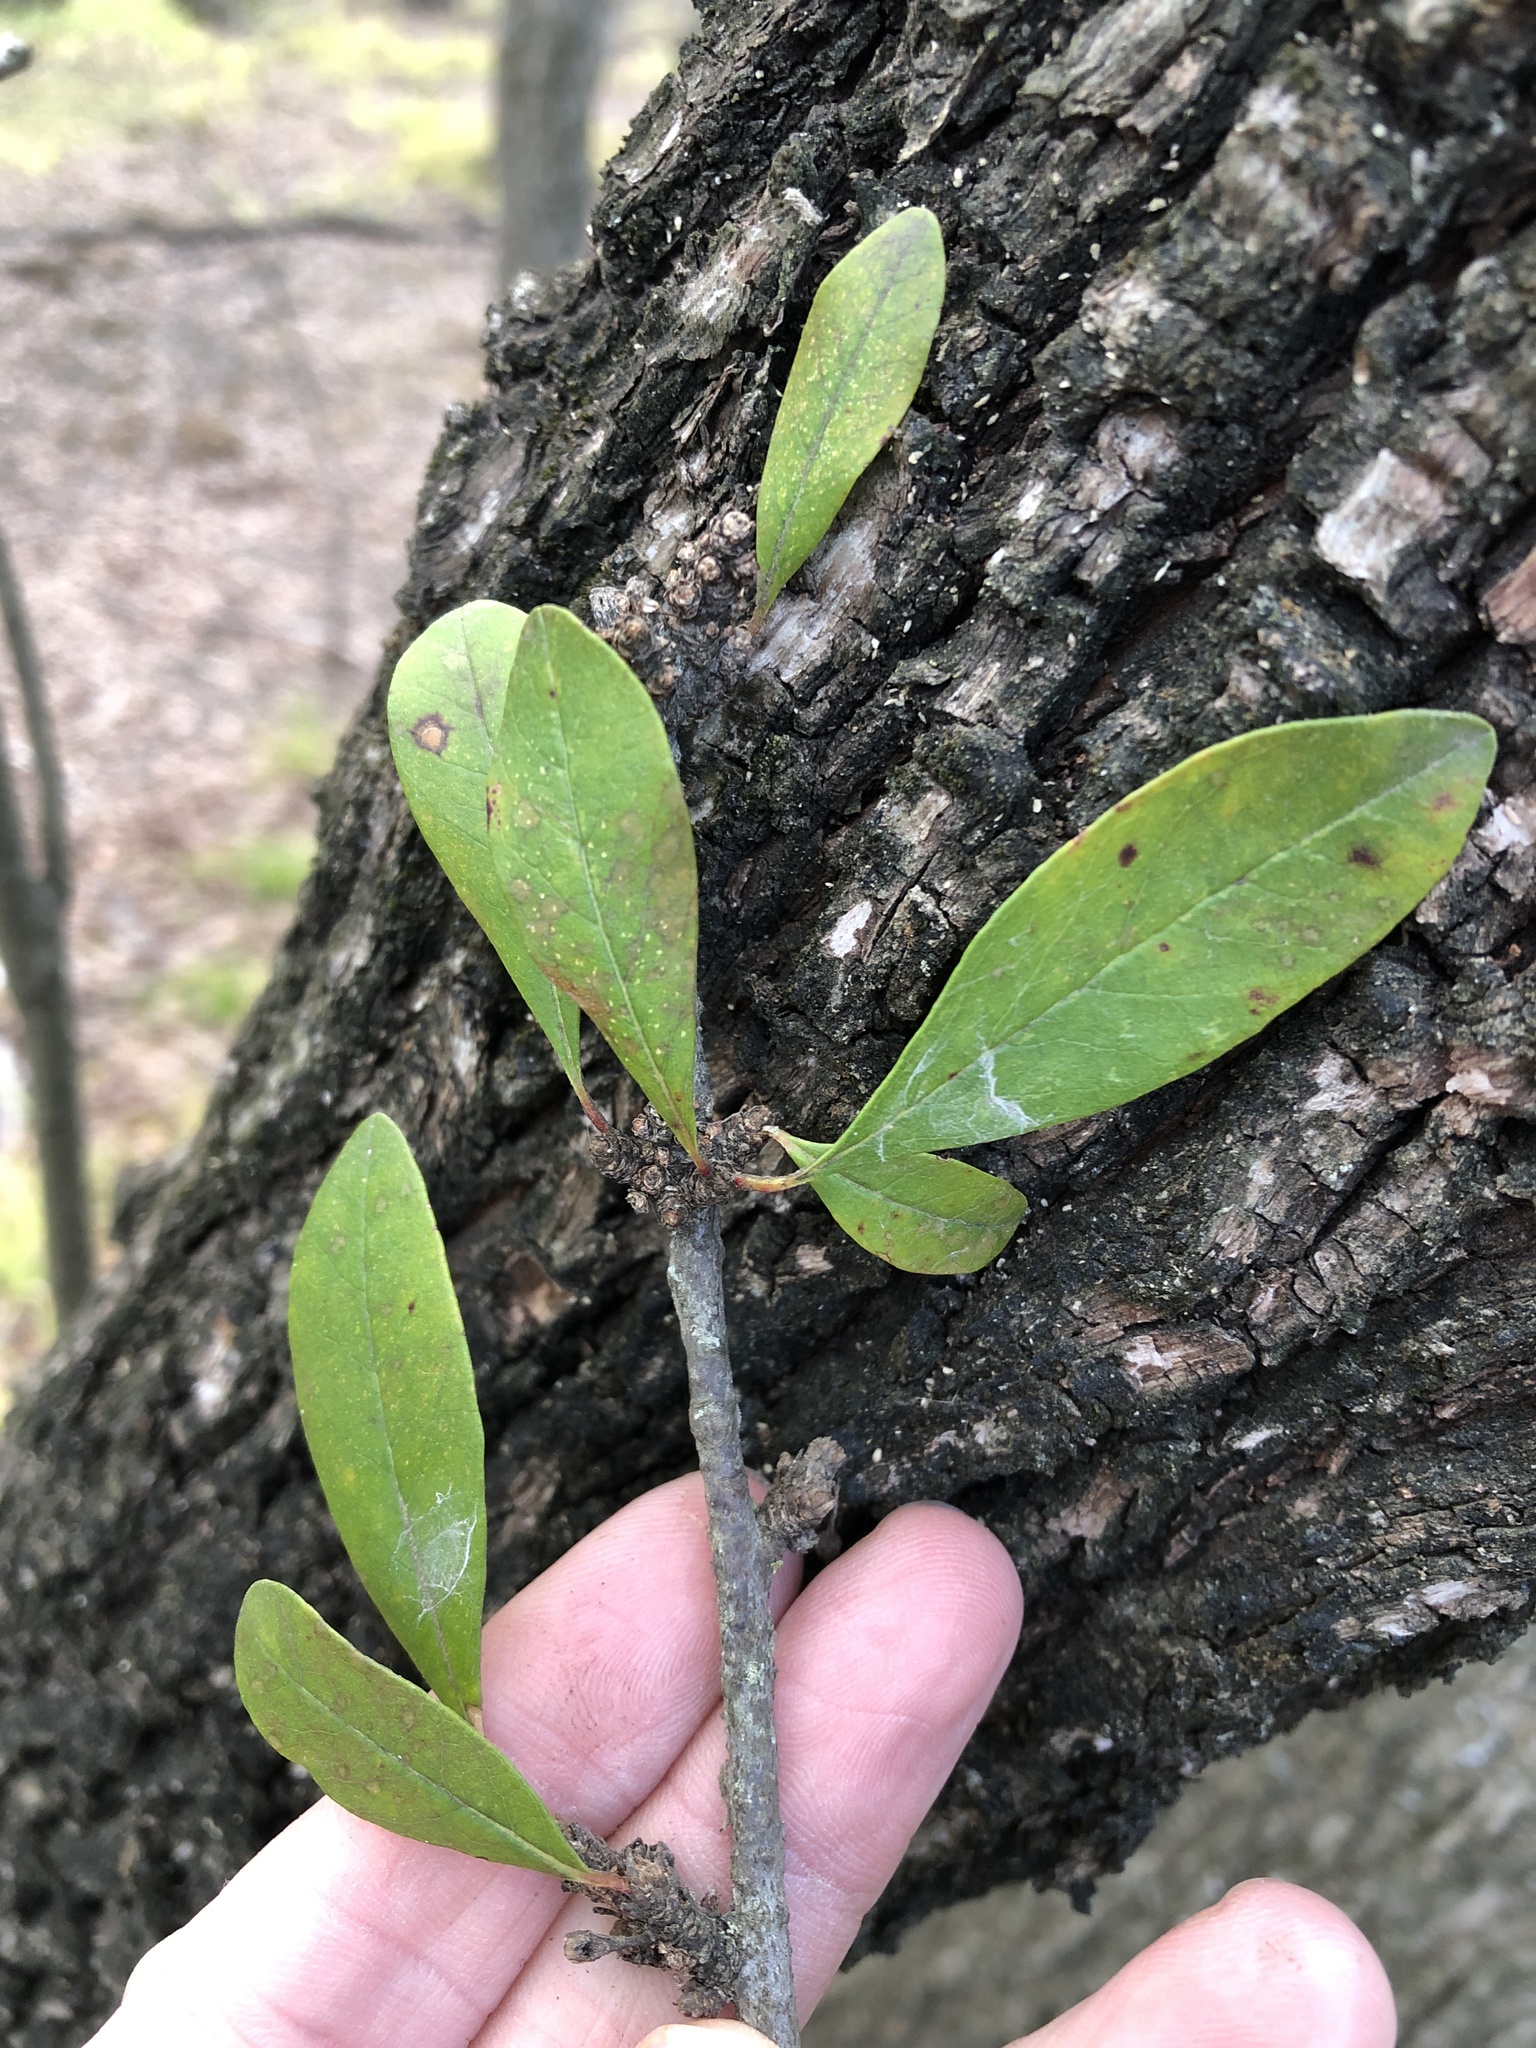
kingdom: Plantae
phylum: Tracheophyta
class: Magnoliopsida
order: Ericales
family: Sapotaceae
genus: Sideroxylon
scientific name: Sideroxylon lanuginosum
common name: Chittamwood
